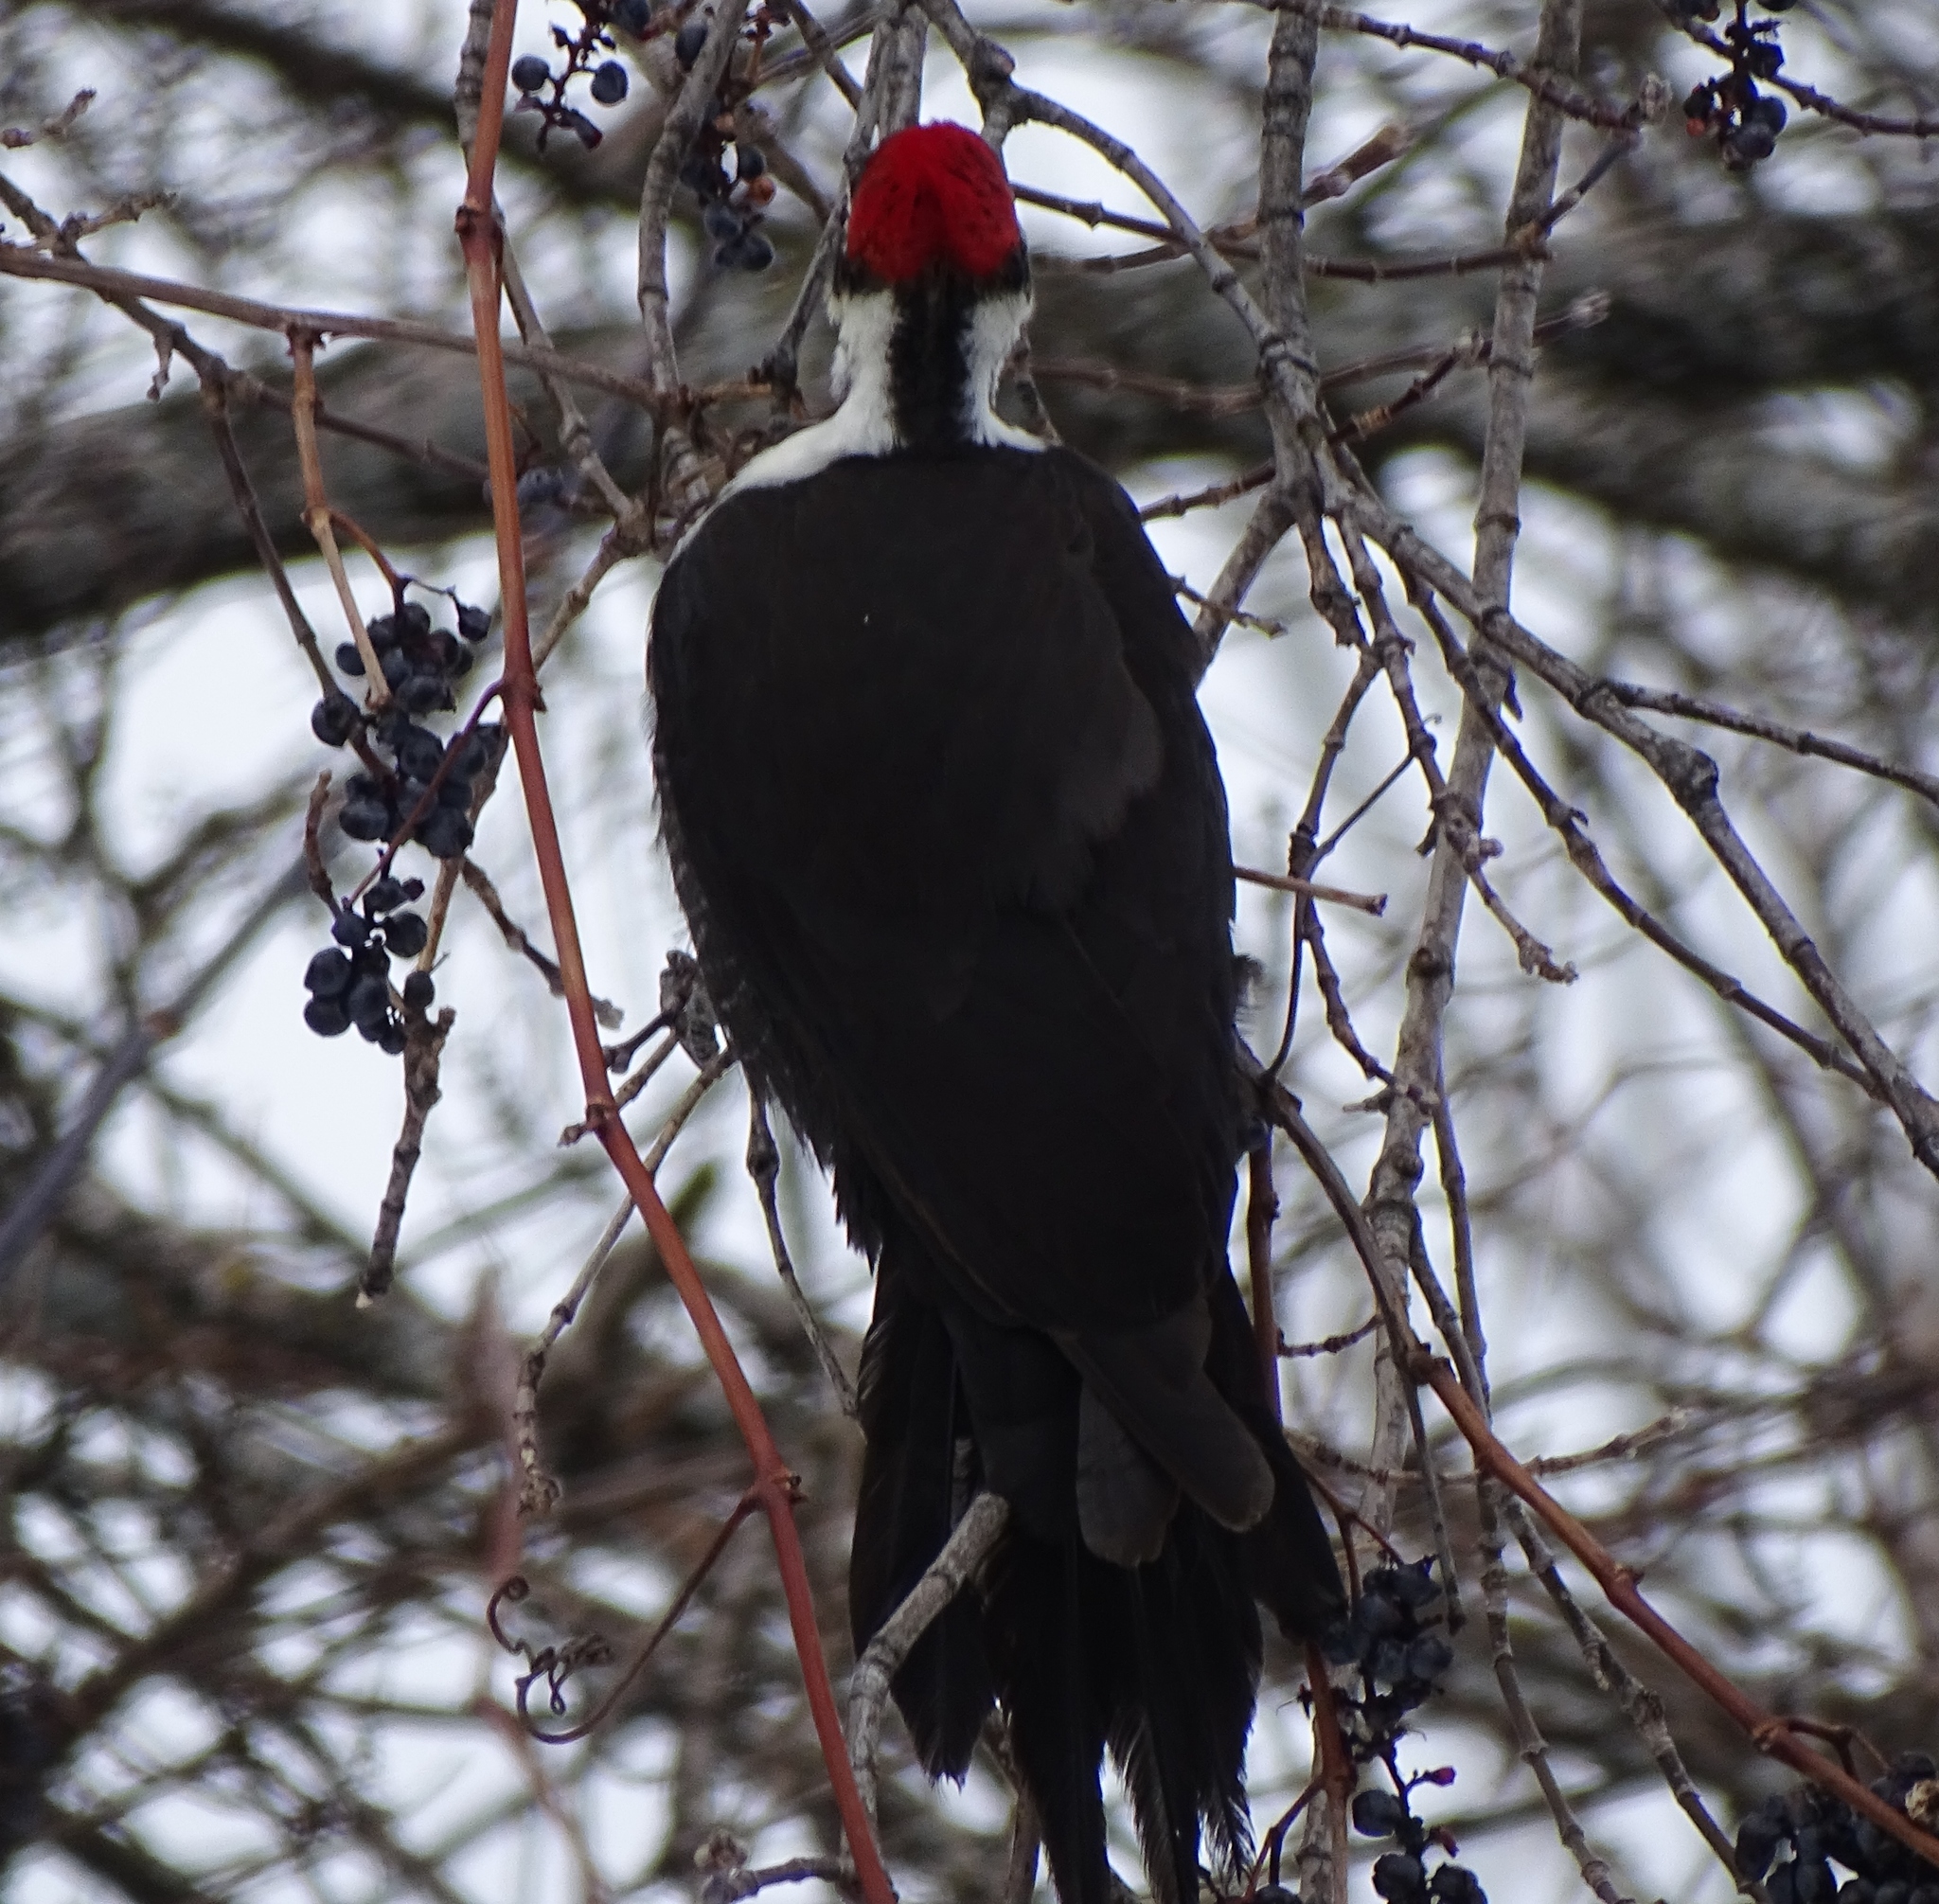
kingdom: Animalia
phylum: Chordata
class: Aves
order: Piciformes
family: Picidae
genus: Dryocopus
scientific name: Dryocopus pileatus
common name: Pileated woodpecker
